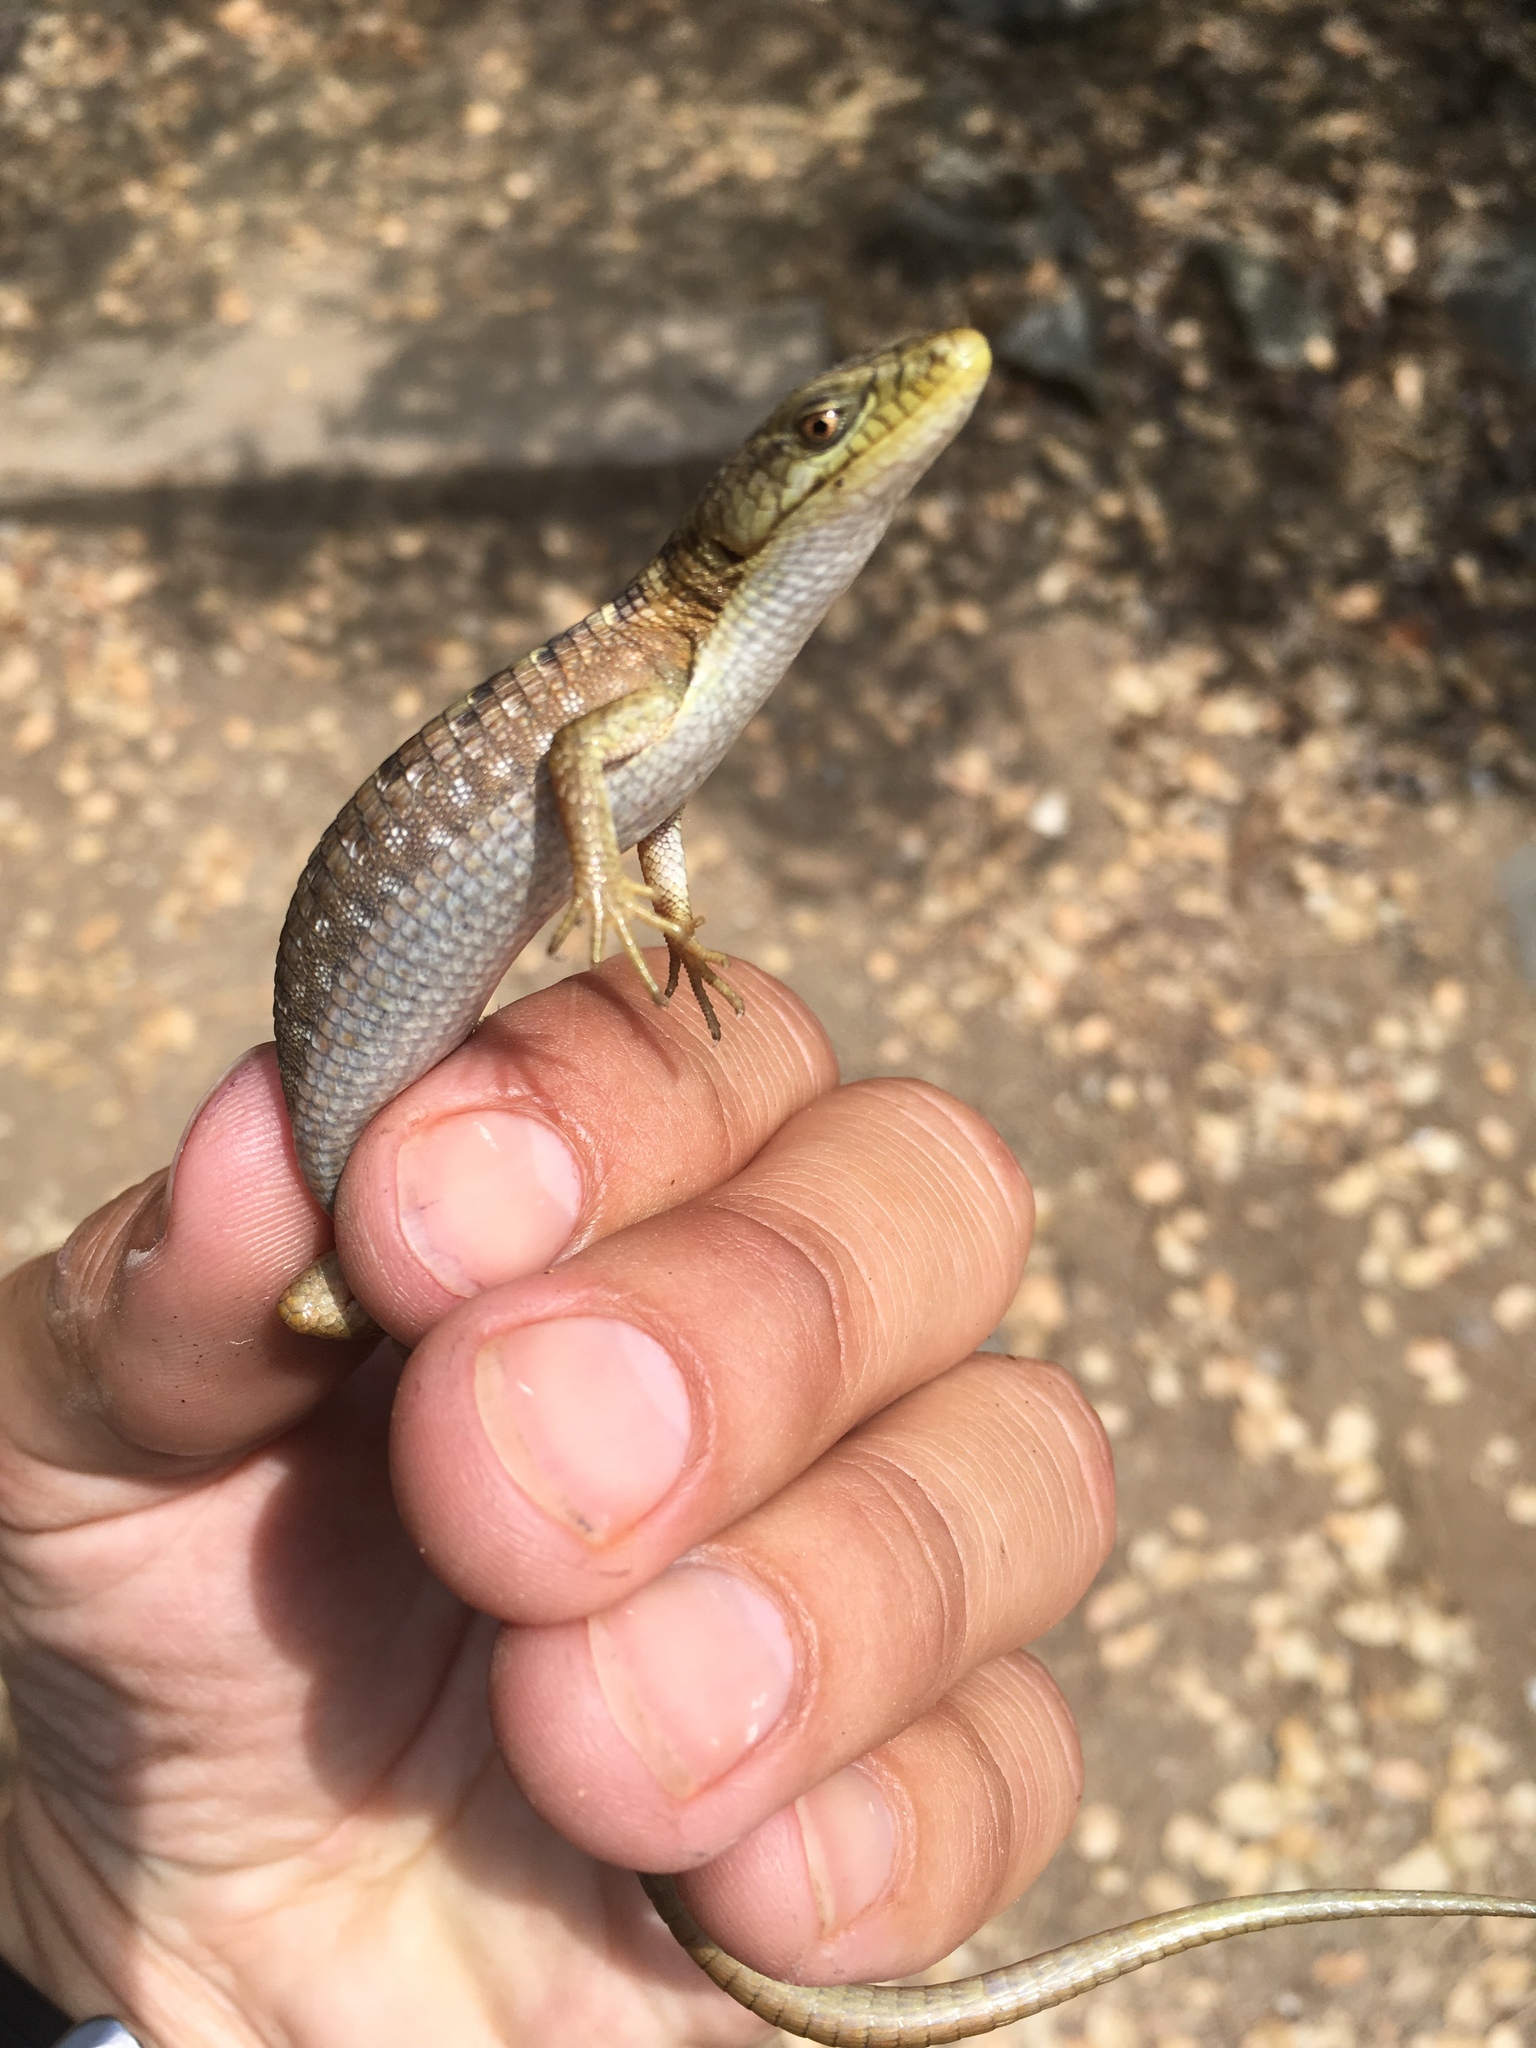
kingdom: Animalia
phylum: Chordata
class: Squamata
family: Anguidae
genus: Elgaria
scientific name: Elgaria multicarinata
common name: Southern alligator lizard
